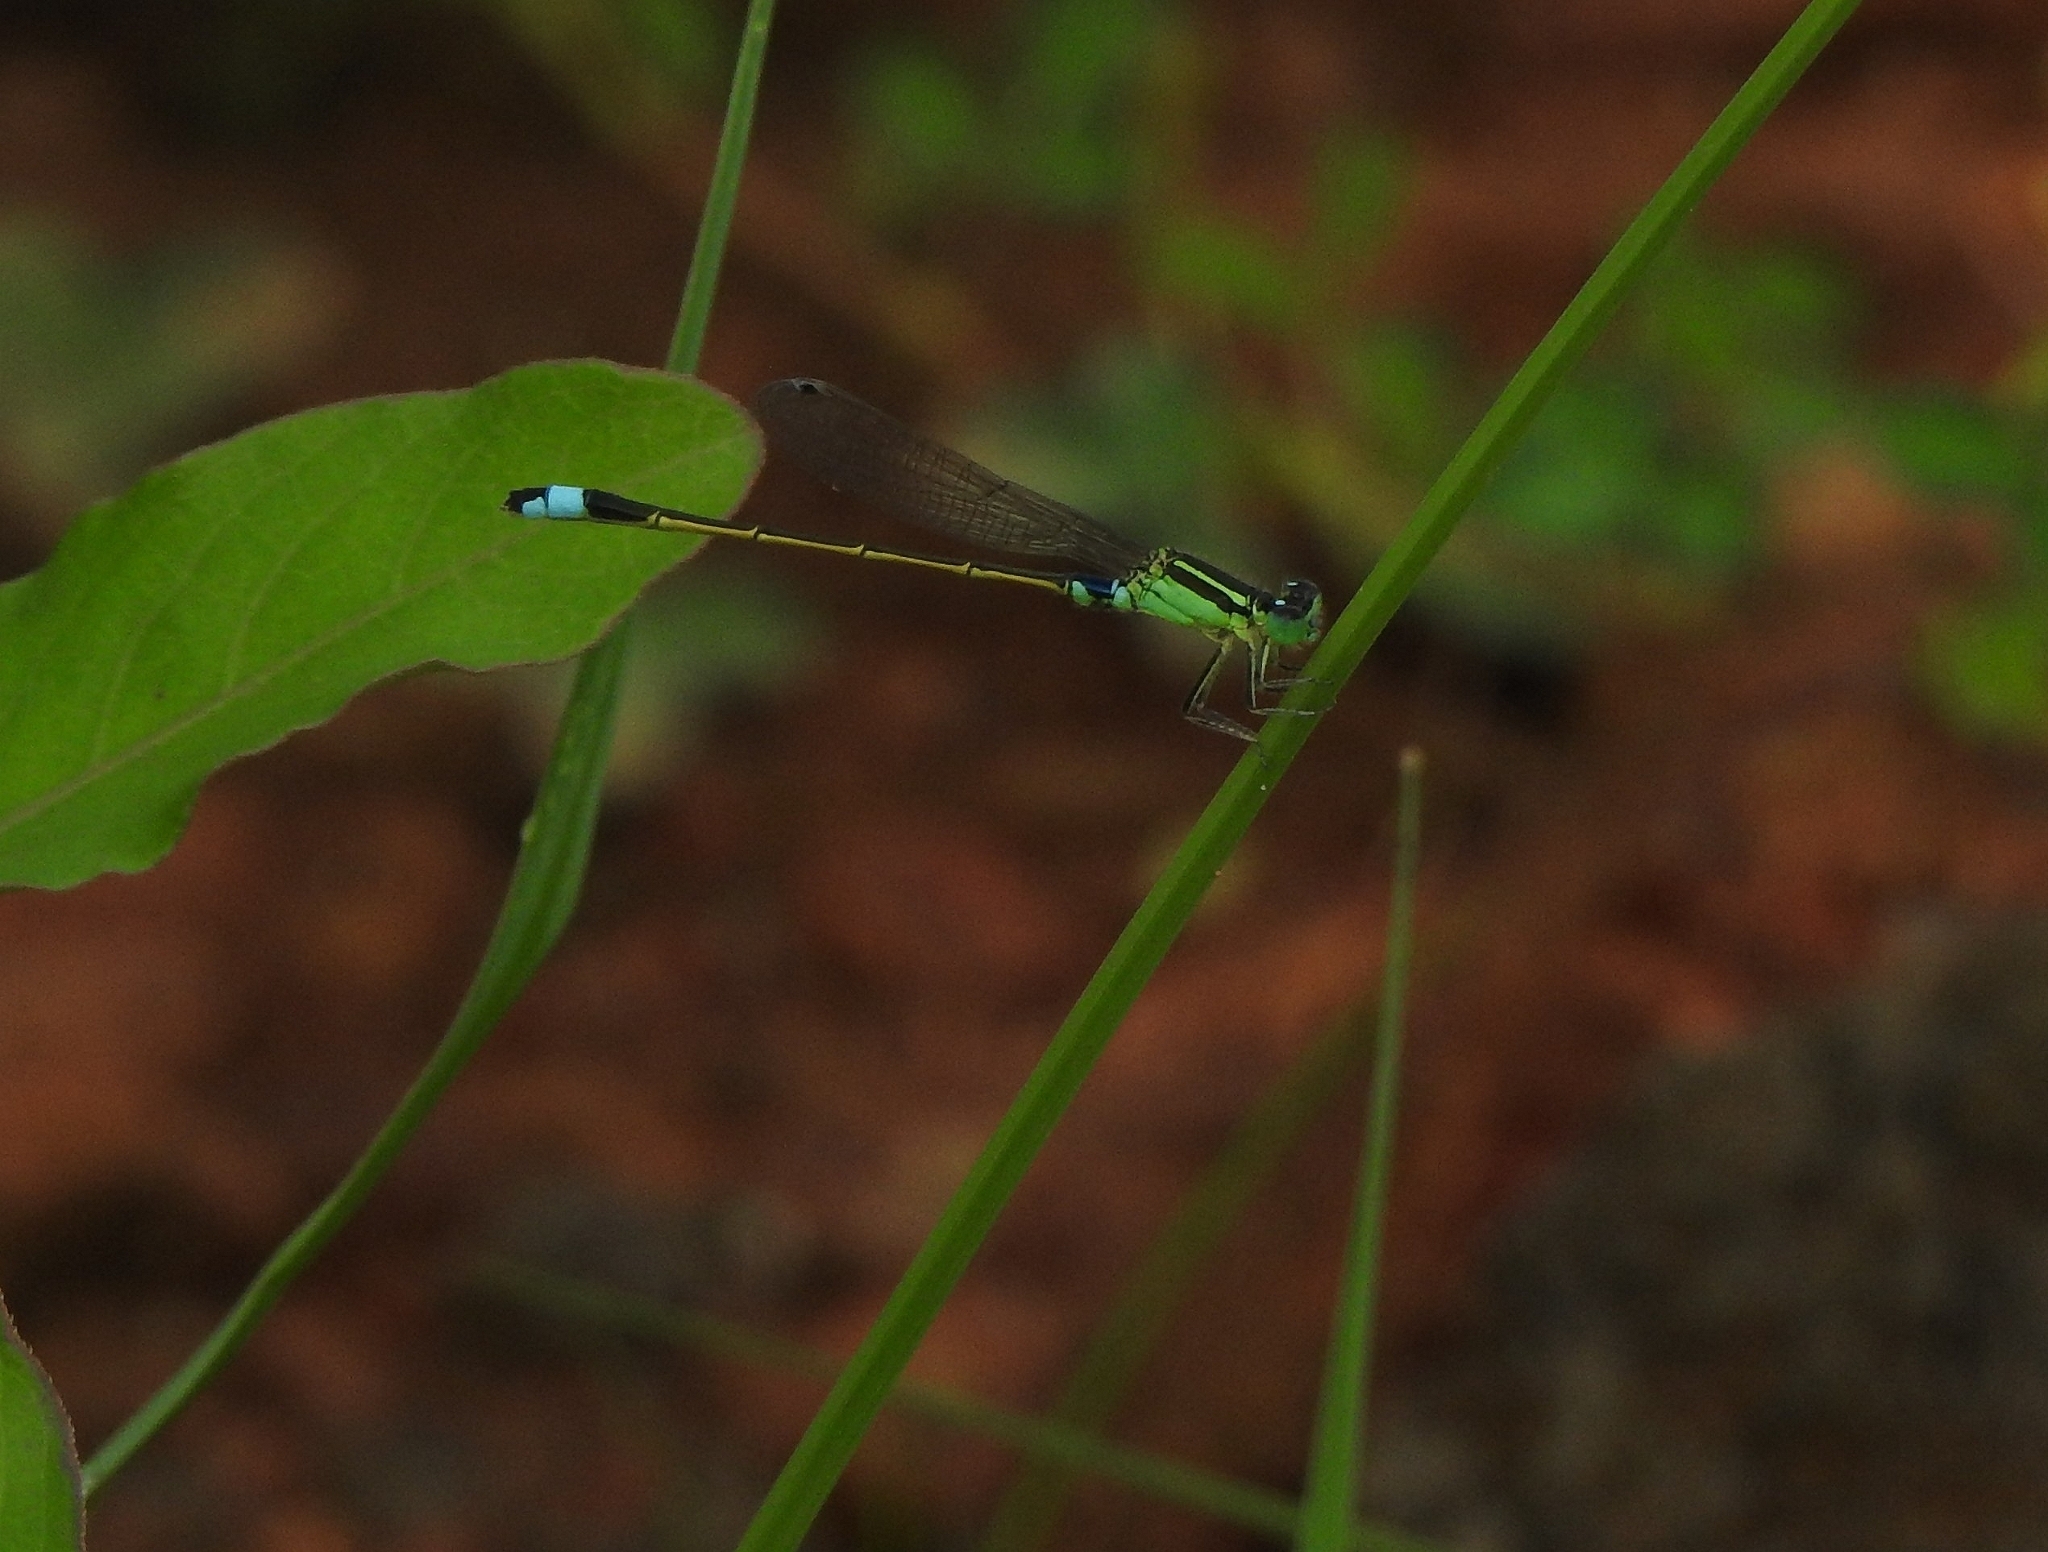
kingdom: Animalia
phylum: Arthropoda
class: Insecta
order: Odonata
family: Coenagrionidae
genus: Ischnura
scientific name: Ischnura senegalensis
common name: Tropical bluetail
